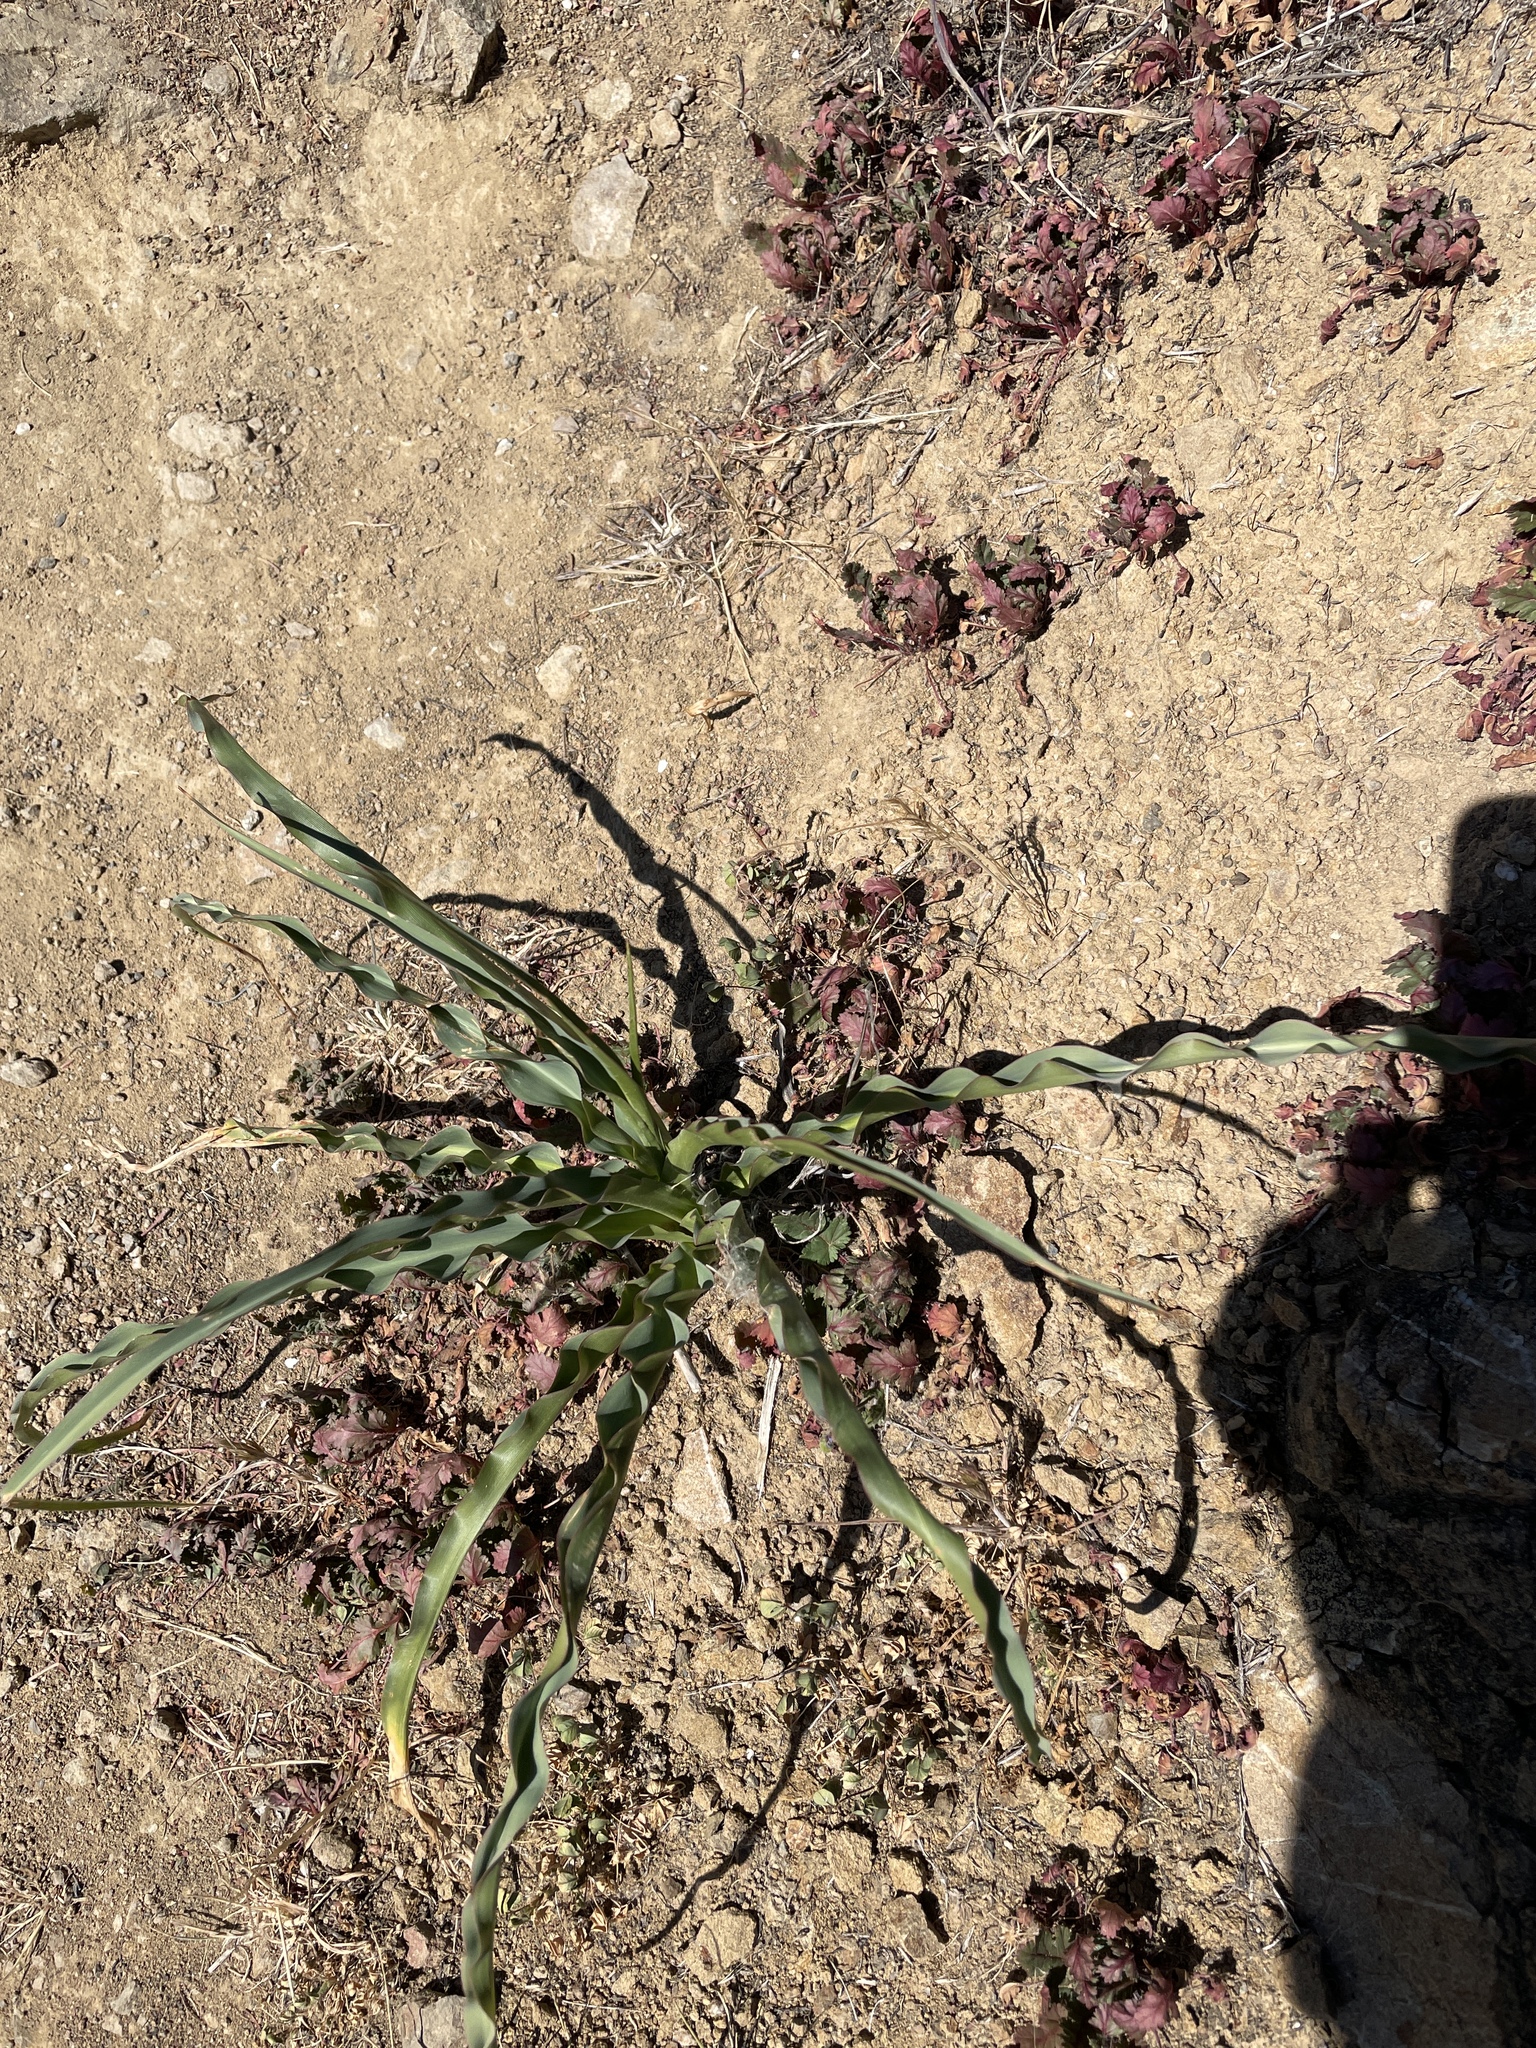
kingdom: Plantae
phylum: Tracheophyta
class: Liliopsida
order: Asparagales
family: Asparagaceae
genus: Chlorogalum
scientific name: Chlorogalum pomeridianum
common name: Amole
